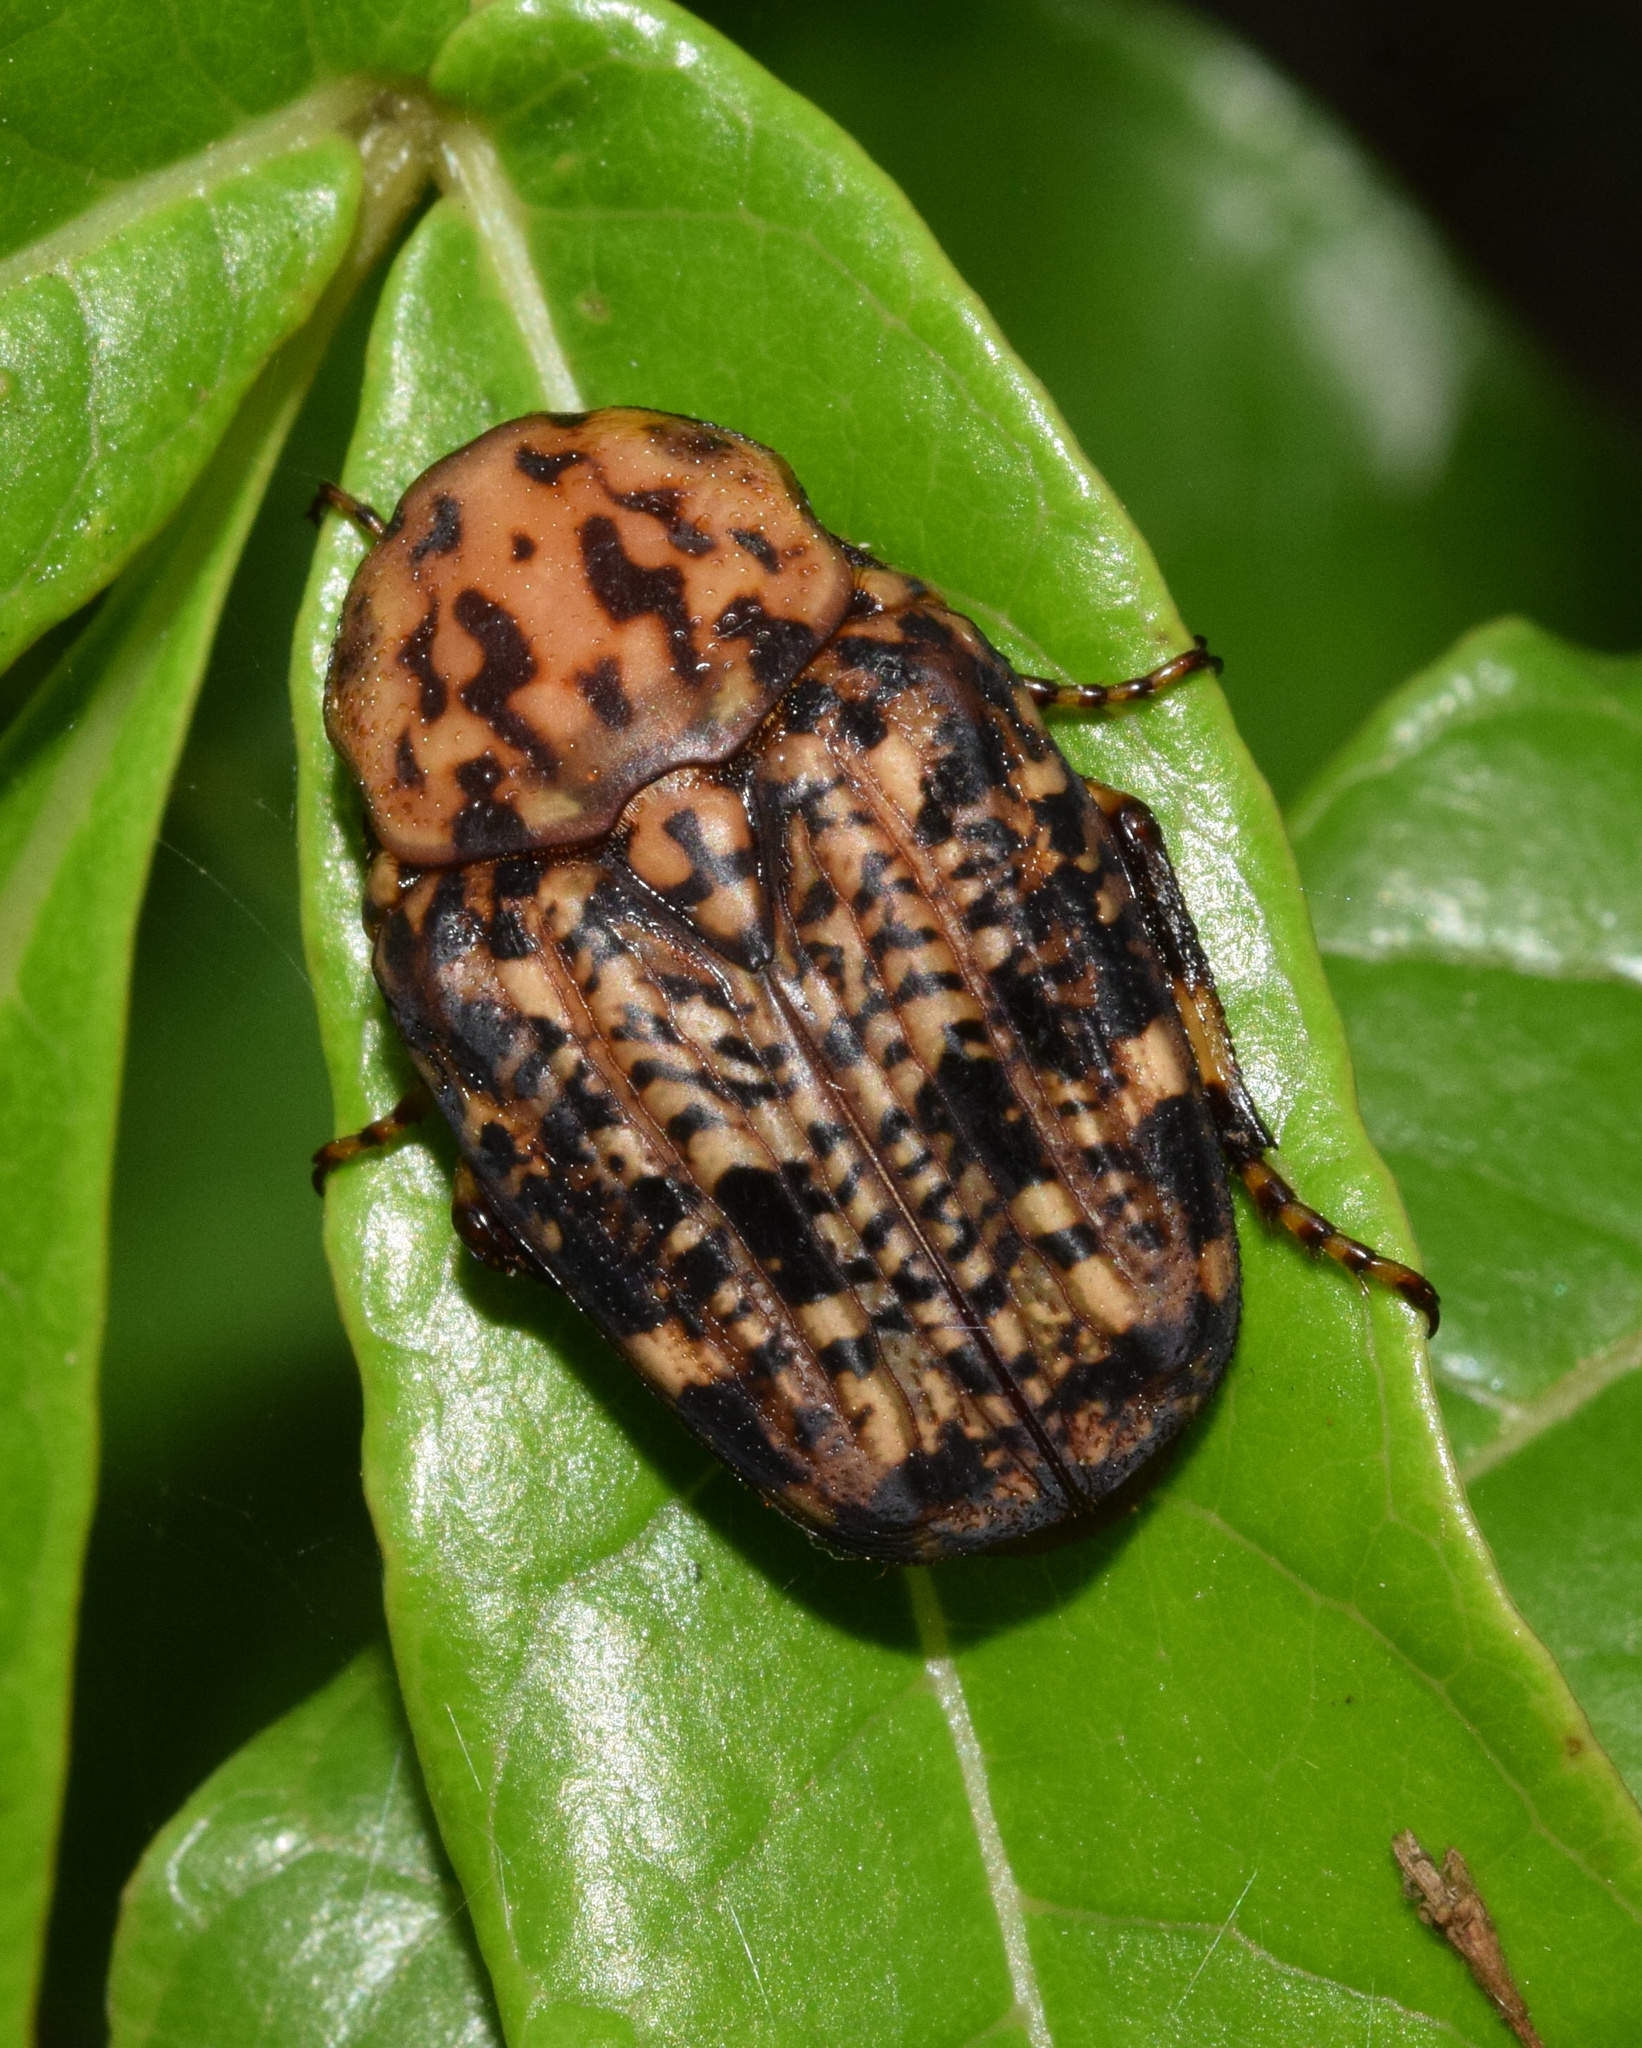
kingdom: Animalia
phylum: Arthropoda
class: Insecta
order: Coleoptera
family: Scarabaeidae
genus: Porphyronota
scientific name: Porphyronota maculatissima
